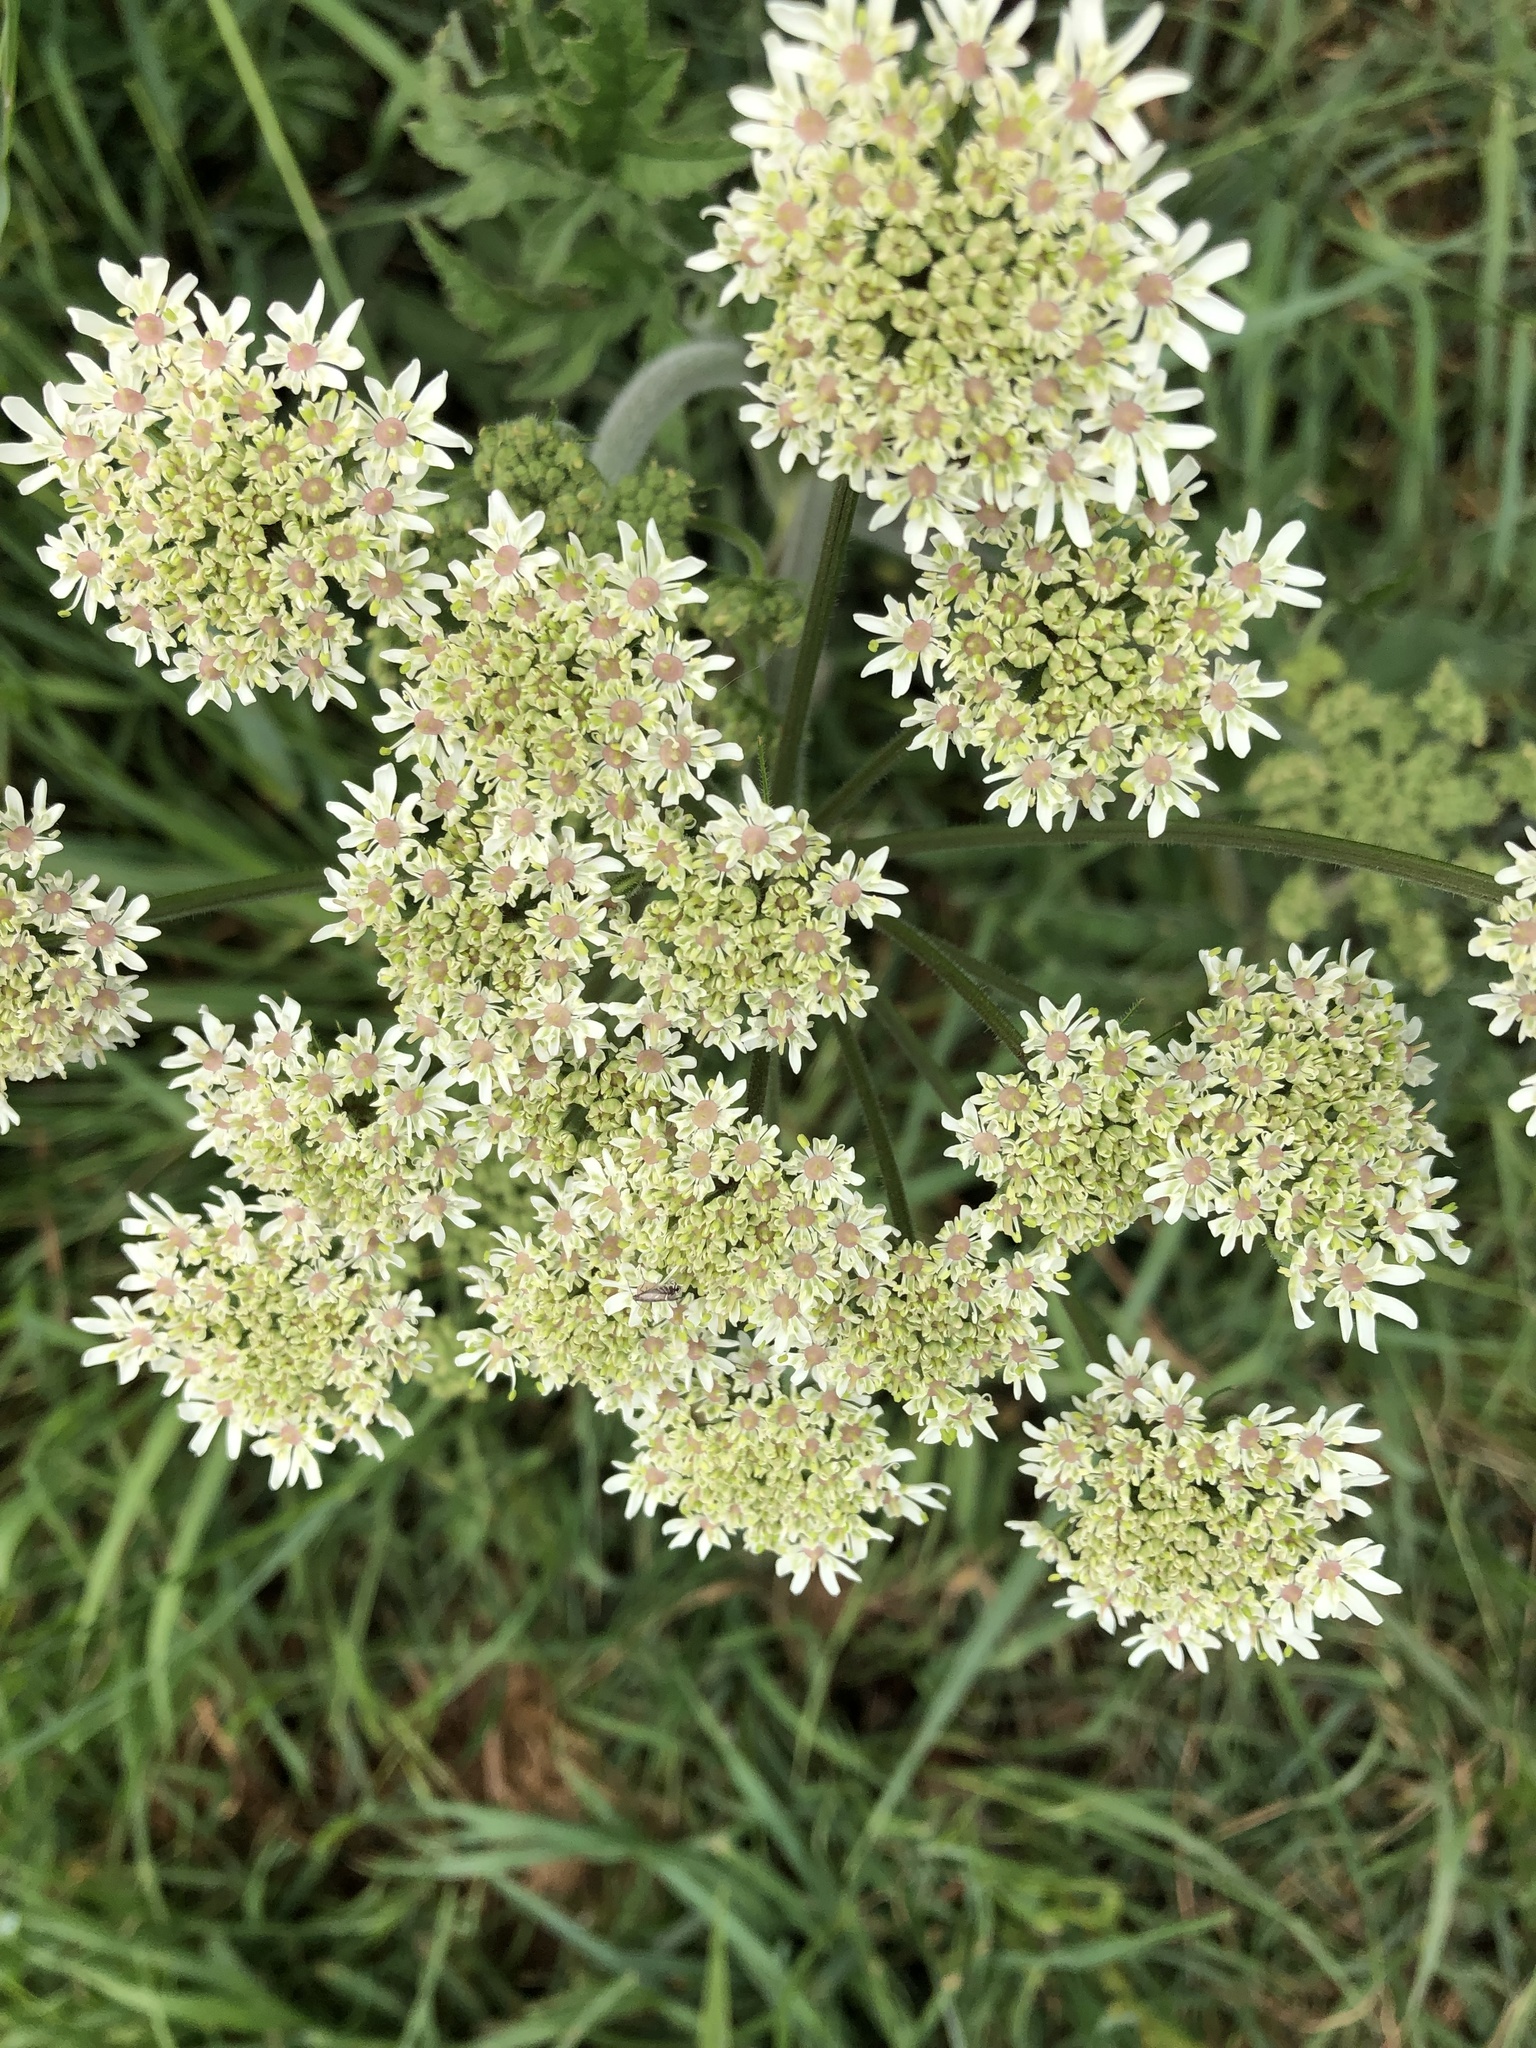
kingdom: Plantae
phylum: Tracheophyta
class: Magnoliopsida
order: Apiales
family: Apiaceae
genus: Heracleum
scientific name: Heracleum sphondylium
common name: Hogweed
